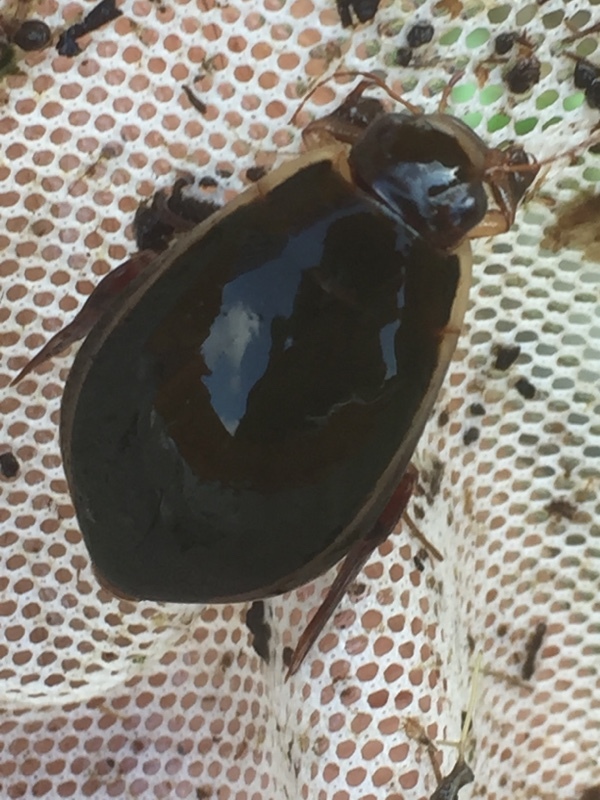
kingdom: Animalia
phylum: Arthropoda
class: Insecta
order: Coleoptera
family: Dytiscidae
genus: Cybister
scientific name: Cybister lateralimarginalis
